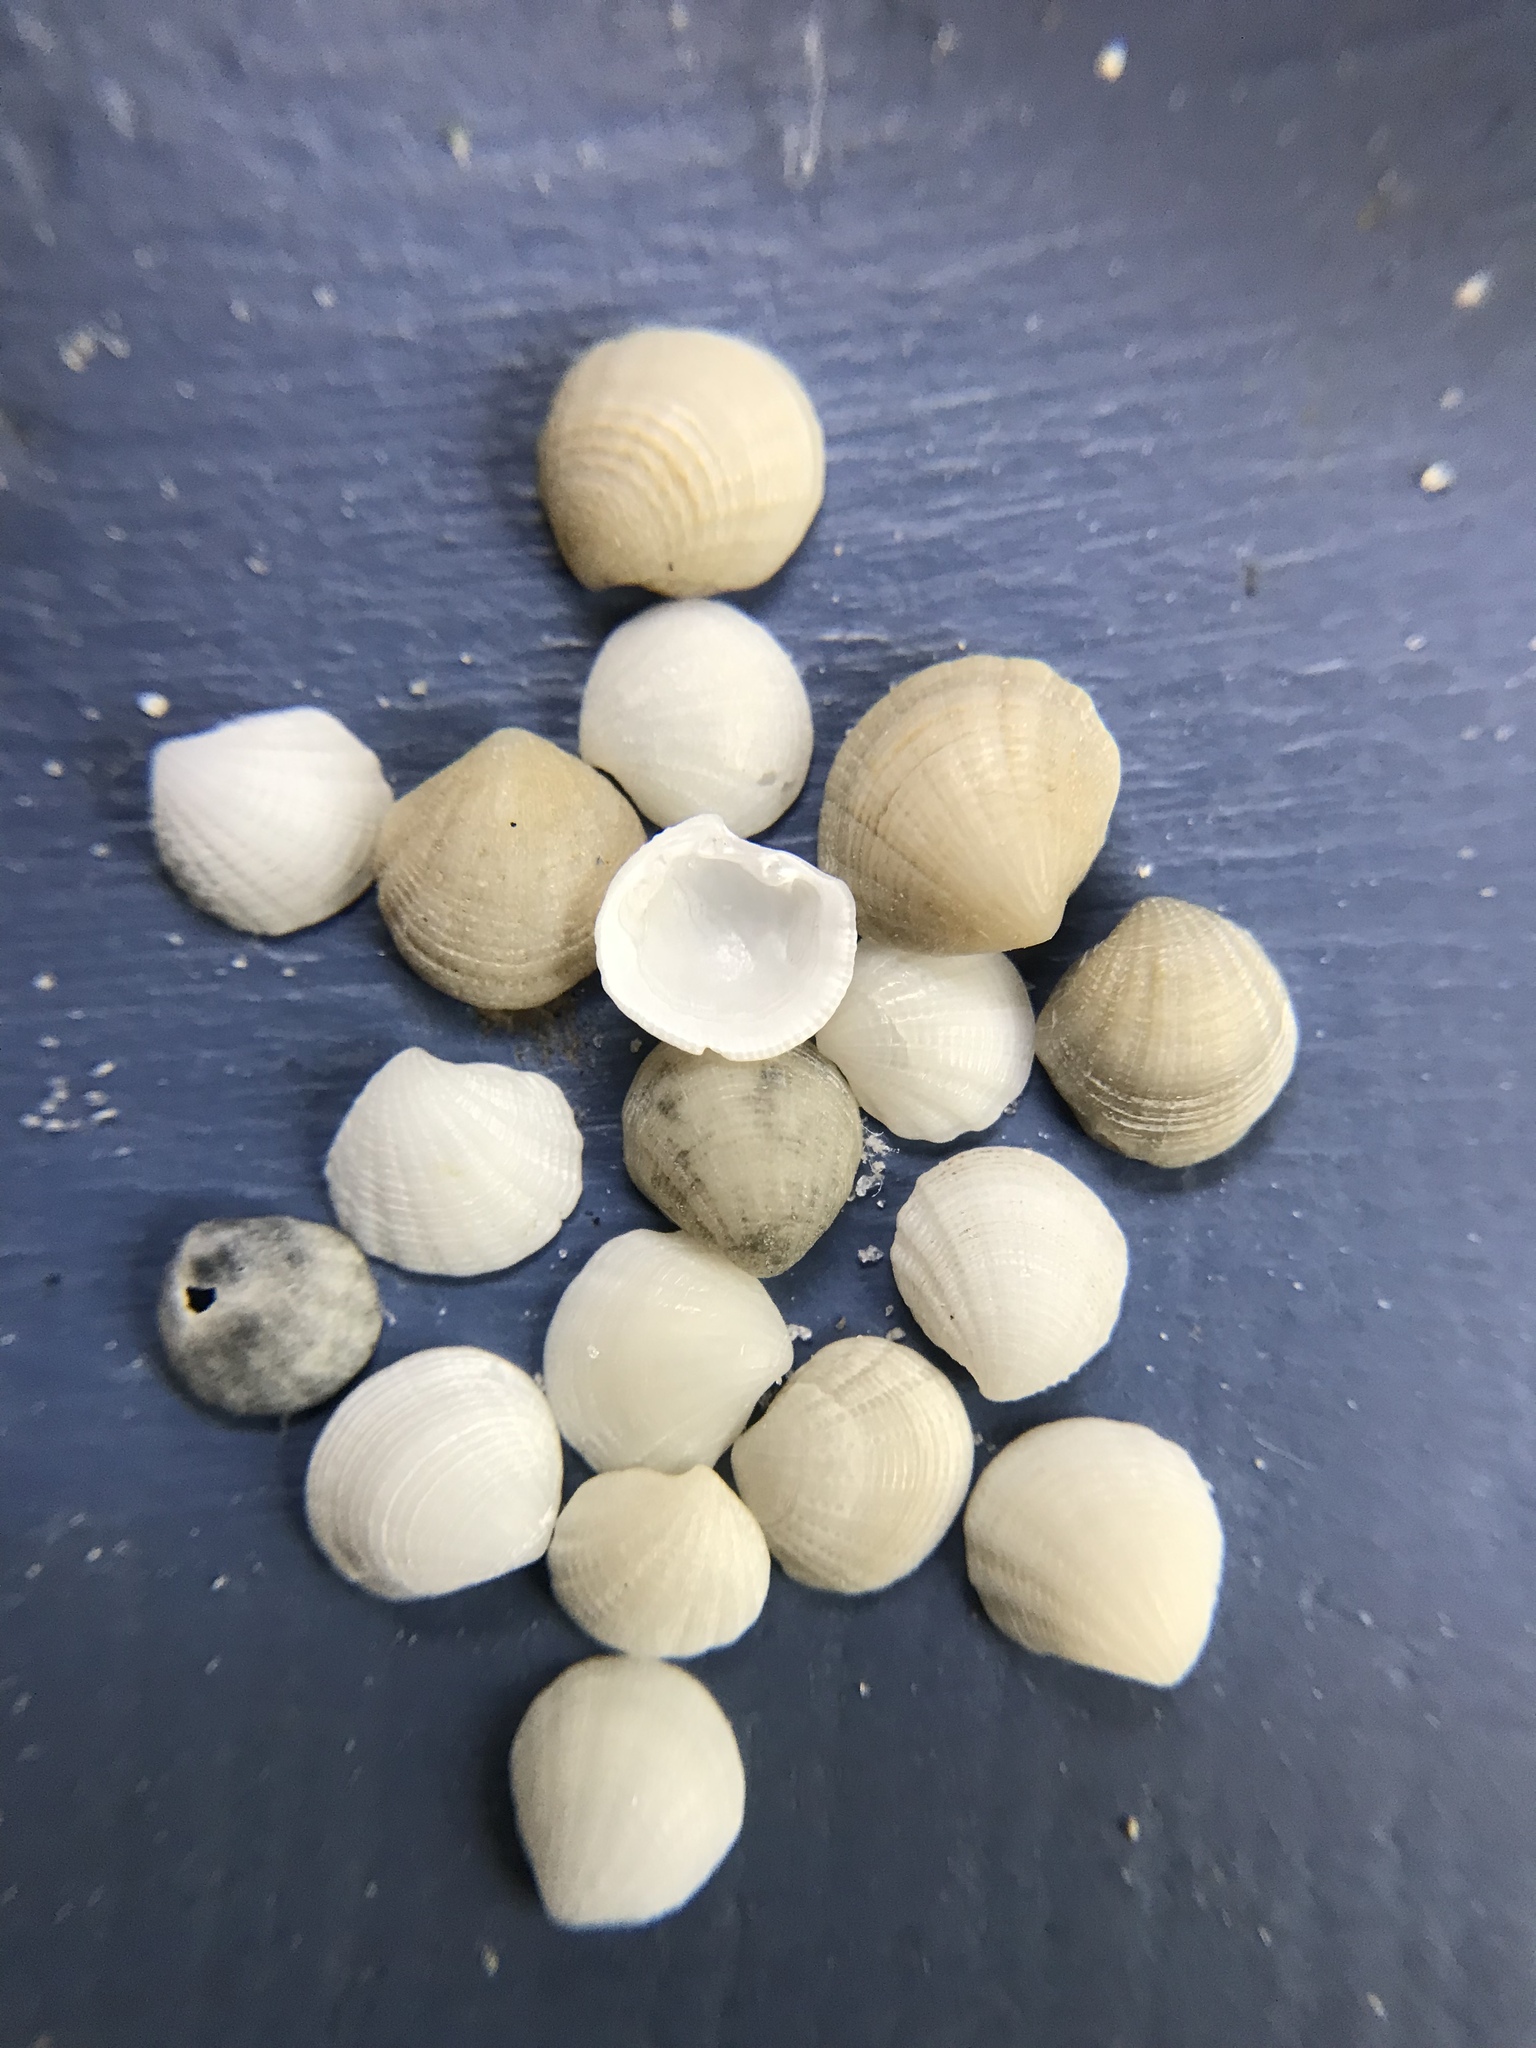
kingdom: Animalia
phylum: Mollusca
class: Bivalvia
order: Lucinida
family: Lucinidae
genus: Radiolucina
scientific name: Radiolucina amianta
